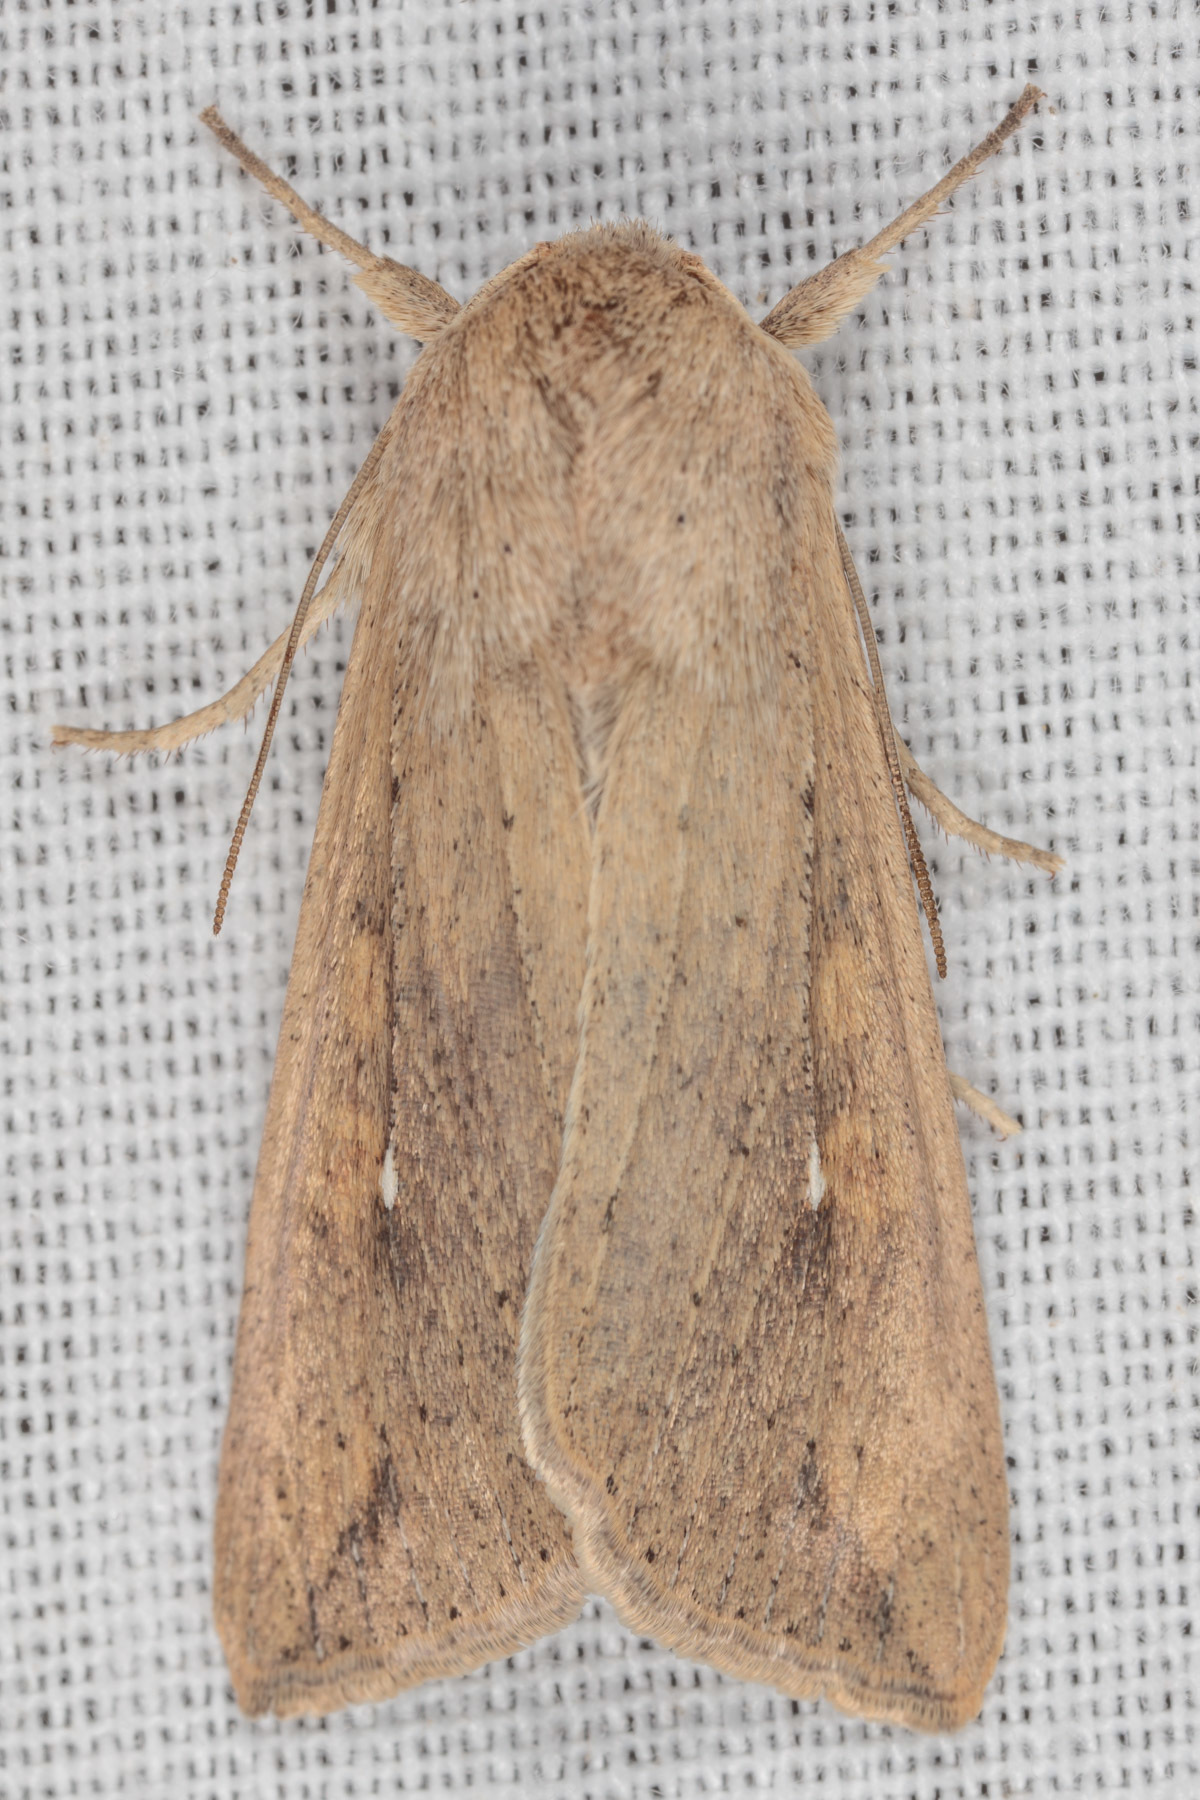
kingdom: Animalia
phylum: Arthropoda
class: Insecta
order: Lepidoptera
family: Noctuidae
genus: Mythimna
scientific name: Mythimna unipuncta
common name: White-speck
